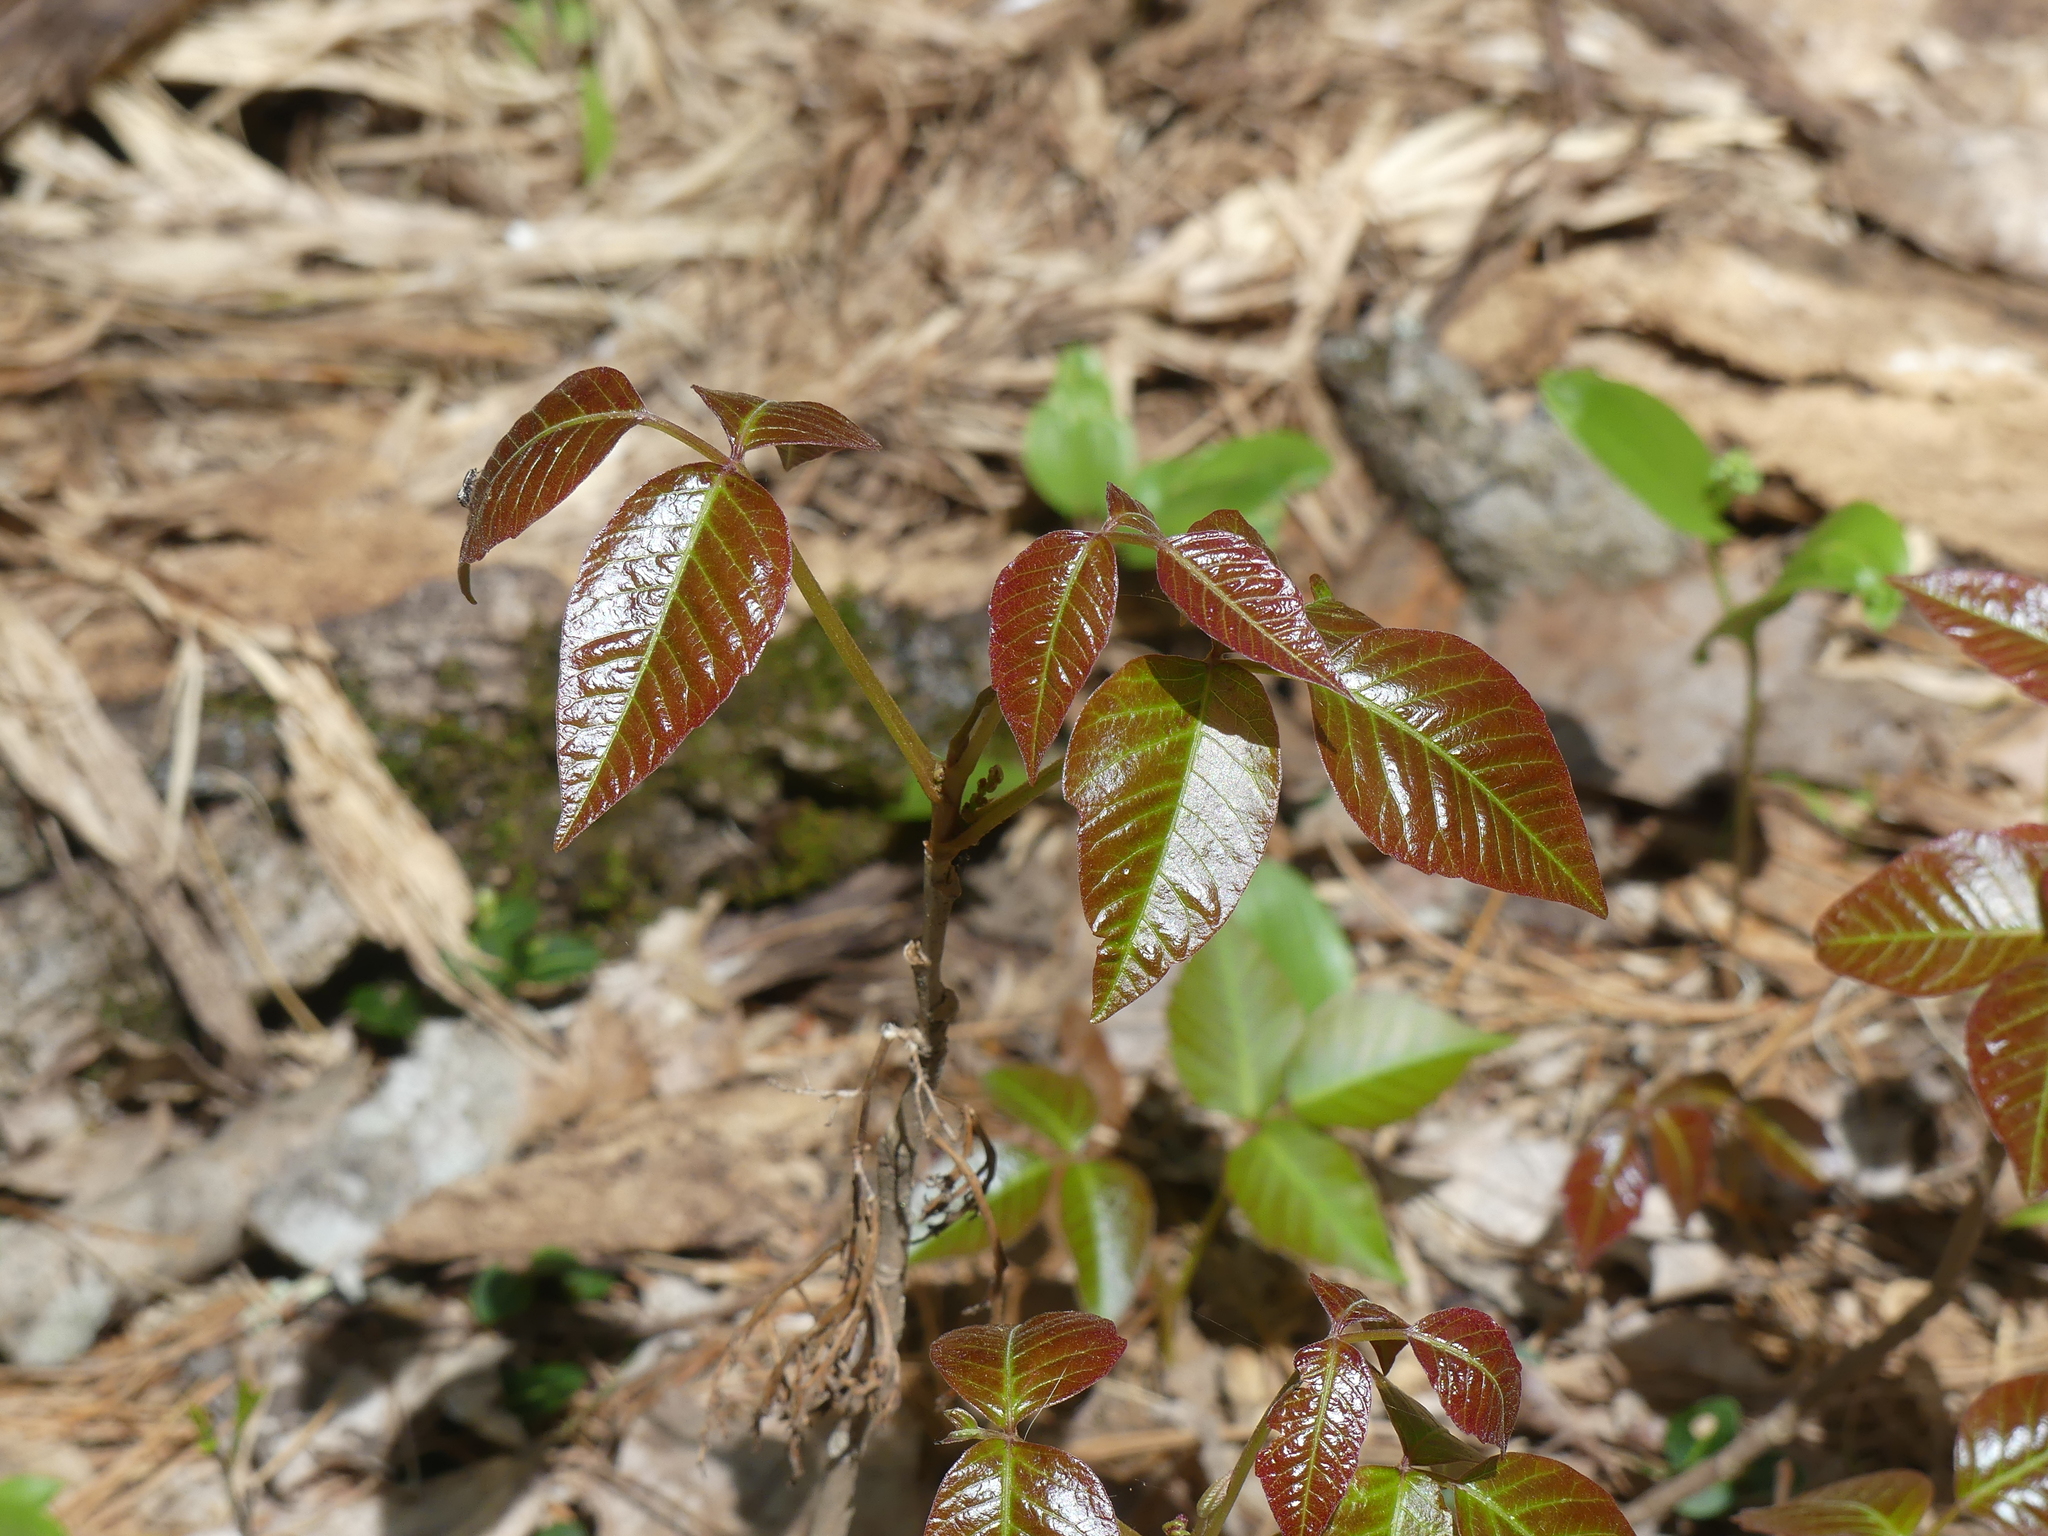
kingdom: Plantae
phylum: Tracheophyta
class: Magnoliopsida
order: Sapindales
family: Anacardiaceae
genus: Toxicodendron
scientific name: Toxicodendron radicans
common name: Poison ivy
